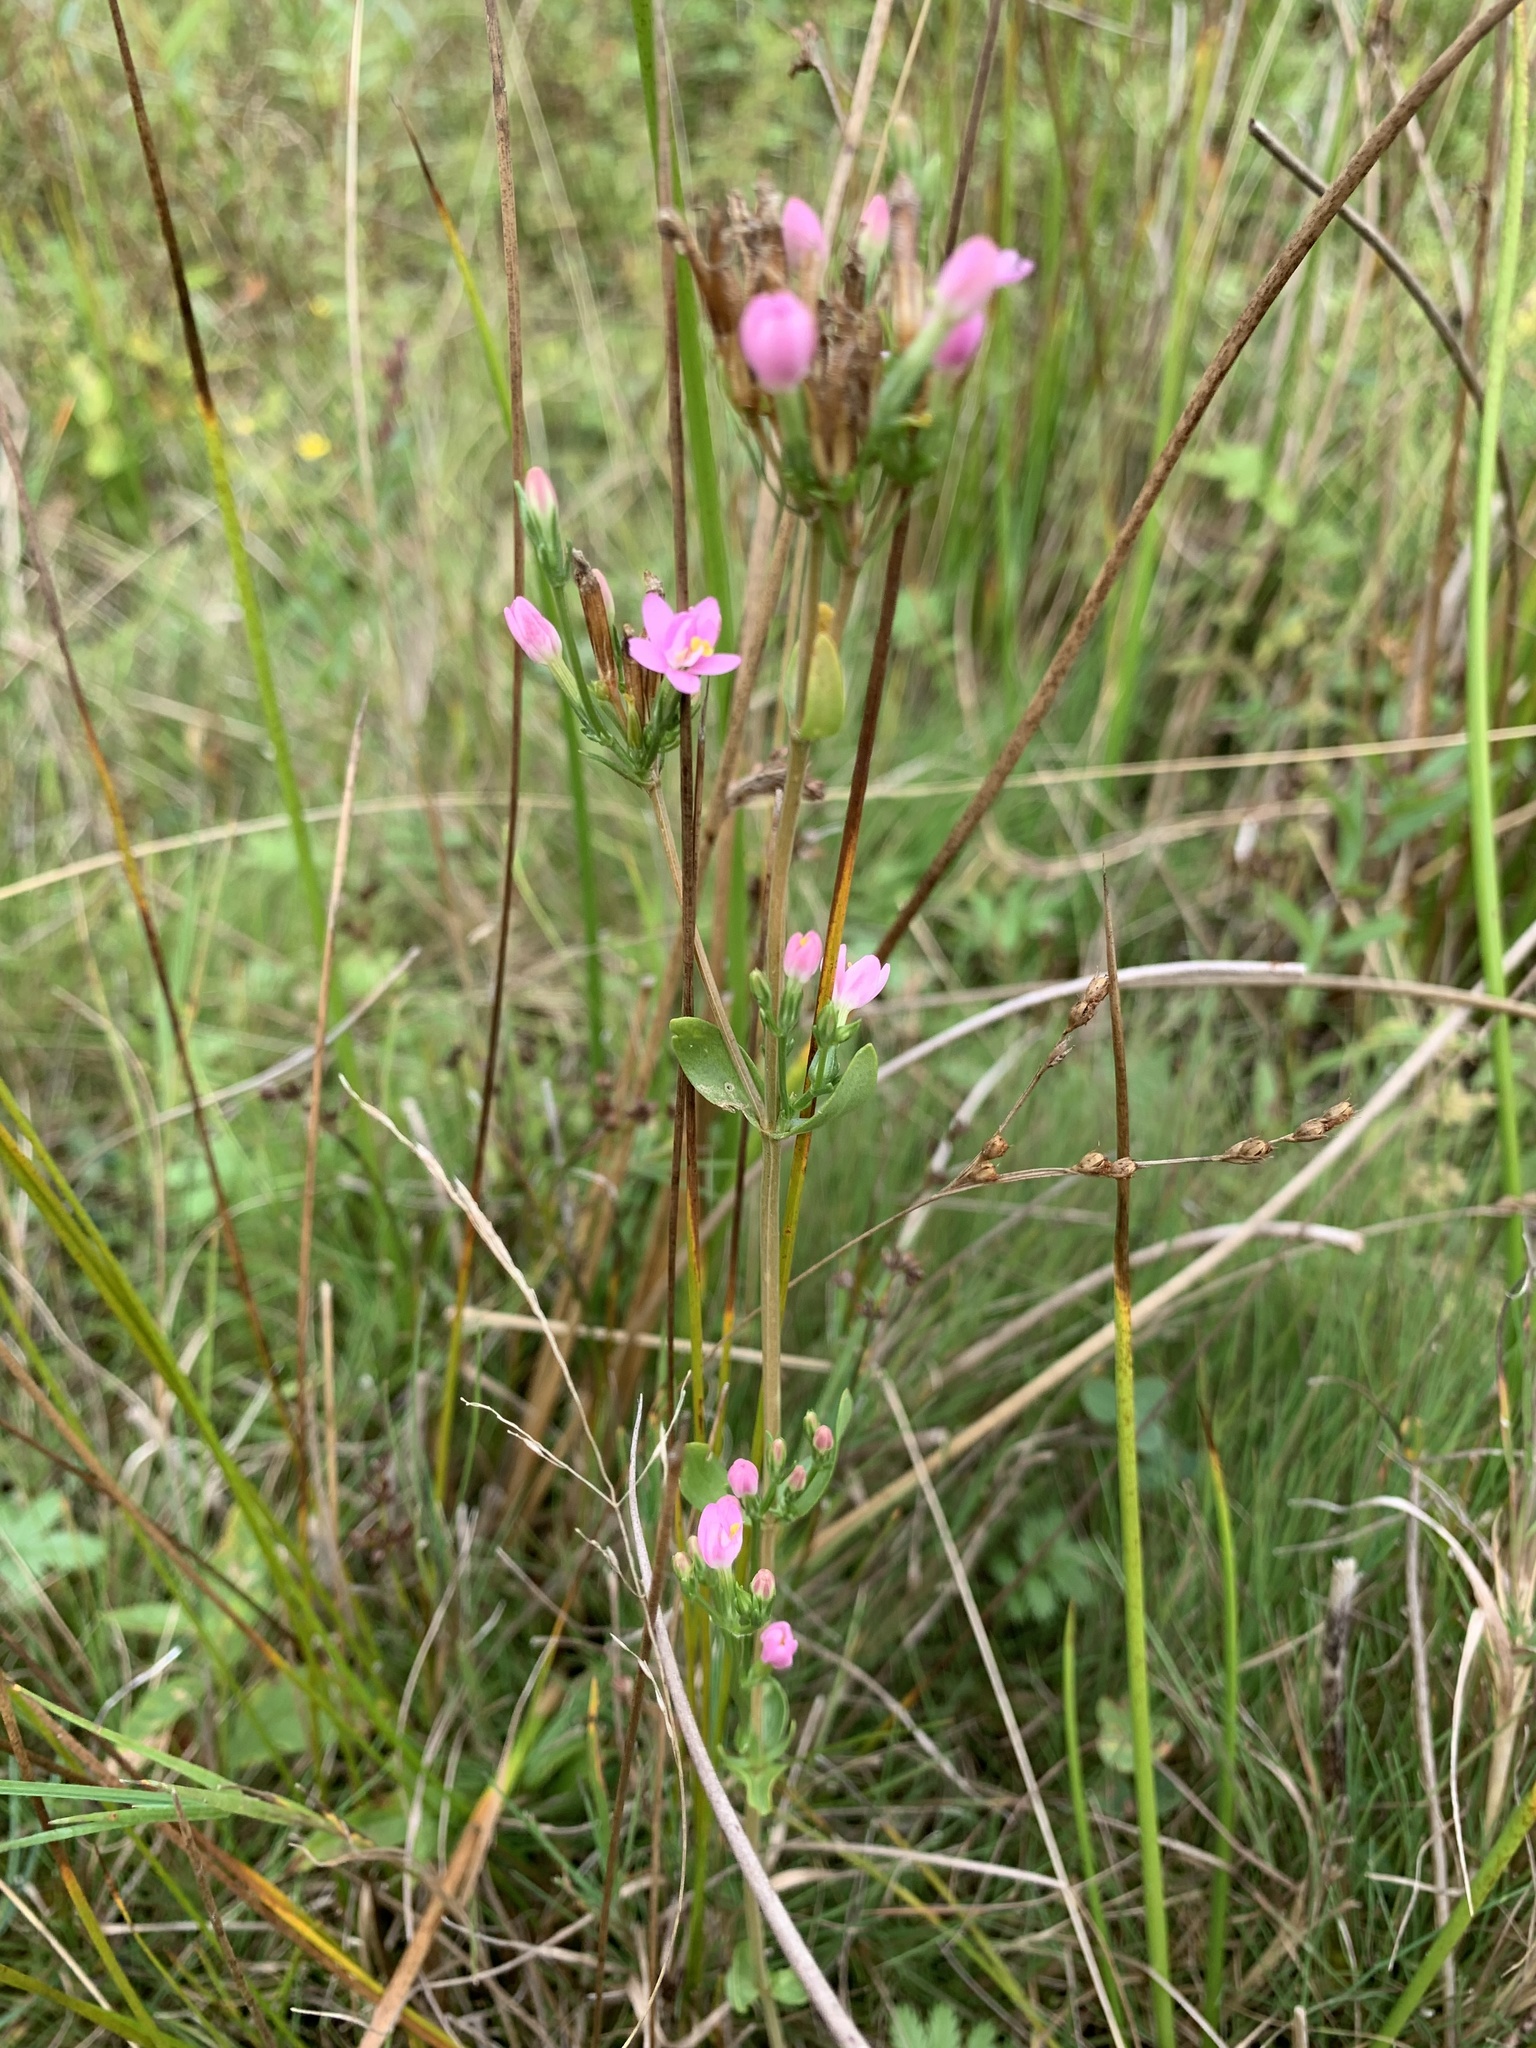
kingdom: Plantae
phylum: Tracheophyta
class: Magnoliopsida
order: Gentianales
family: Gentianaceae
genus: Centaurium
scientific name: Centaurium erythraea
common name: Common centaury
